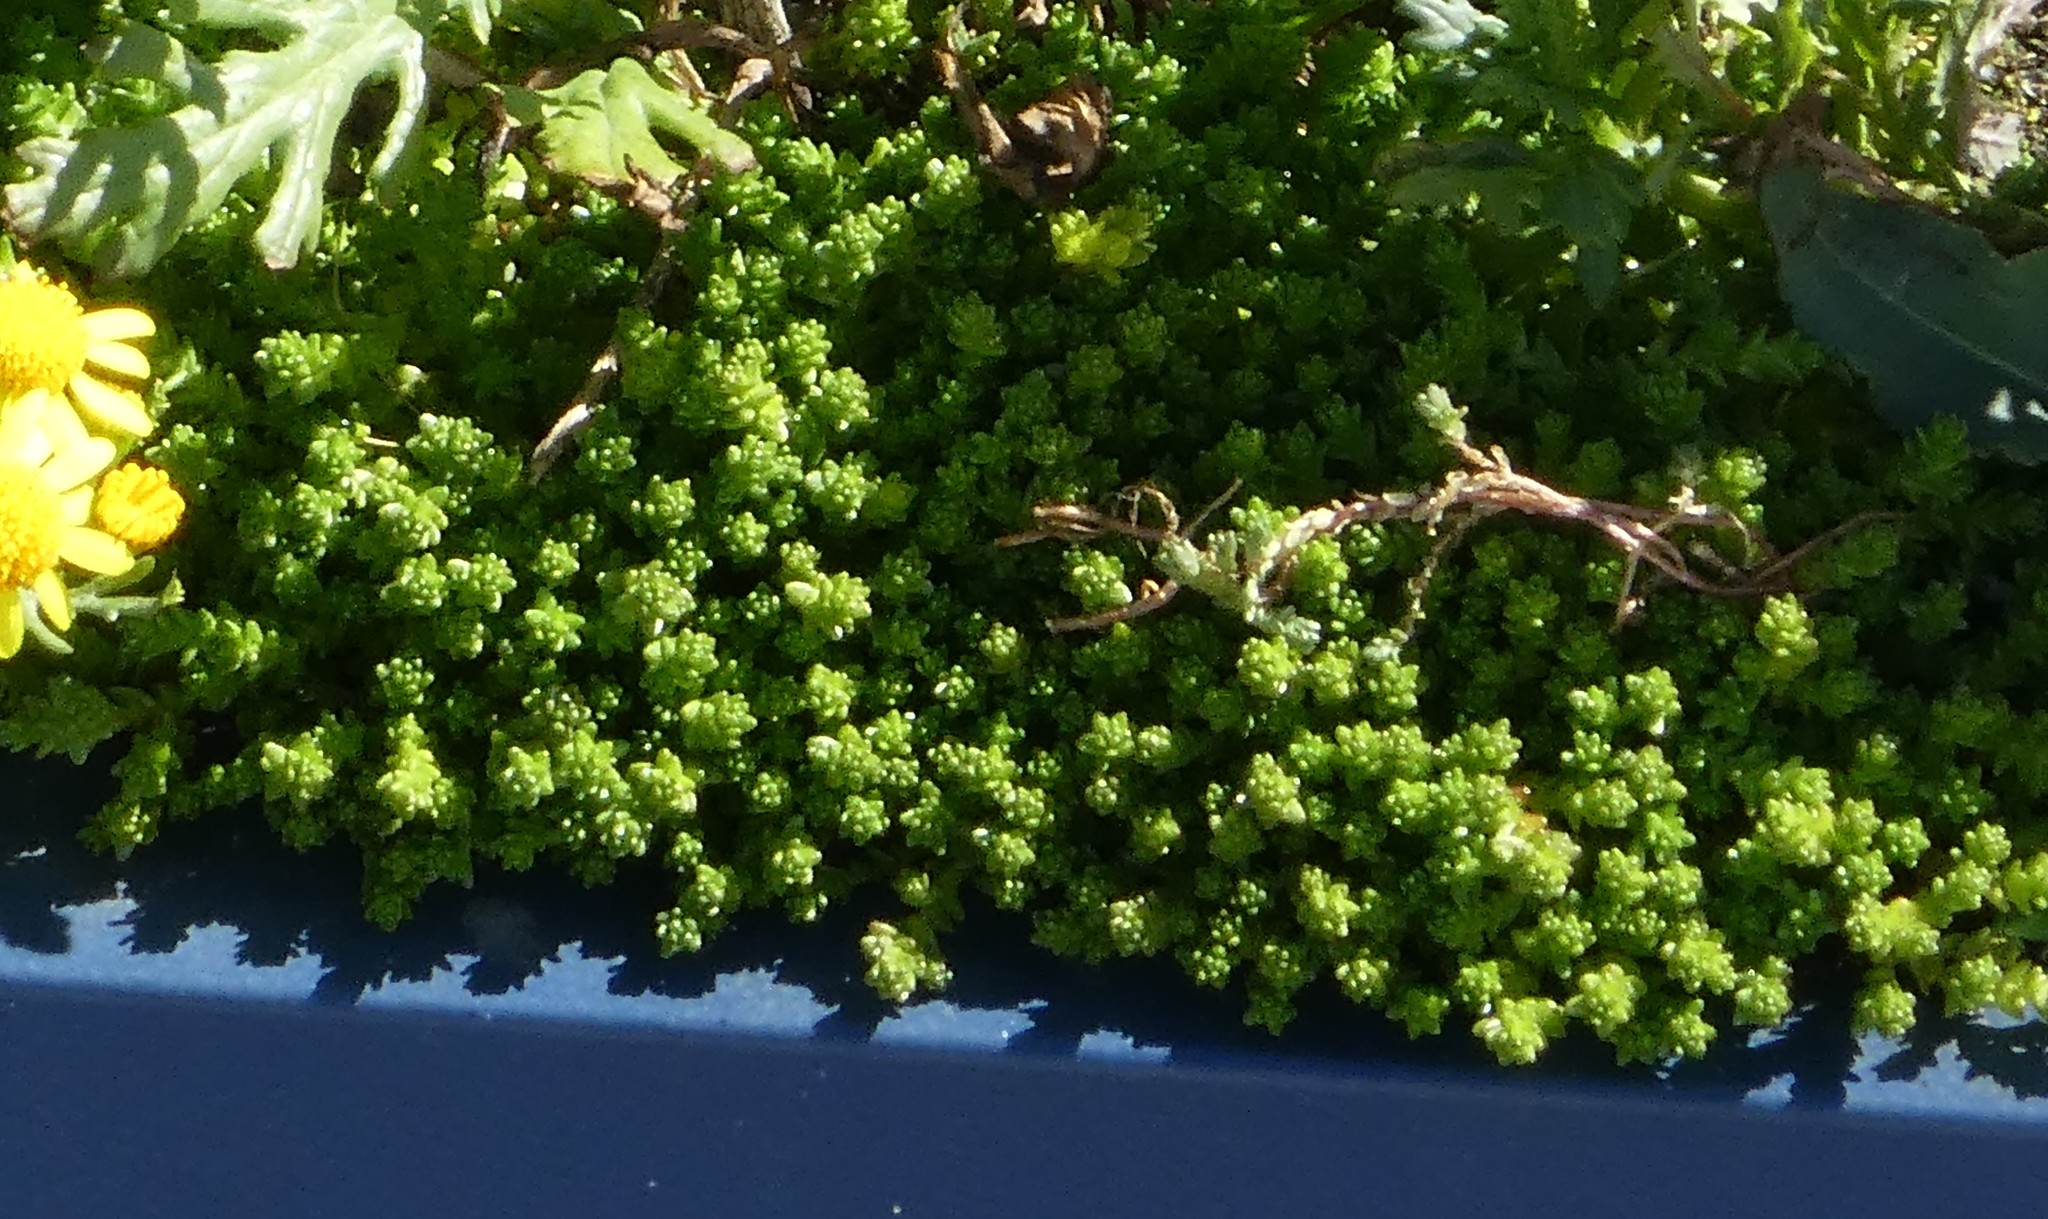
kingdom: Plantae
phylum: Tracheophyta
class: Magnoliopsida
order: Saxifragales
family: Crassulaceae
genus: Sedum
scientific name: Sedum acre
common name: Biting stonecrop
